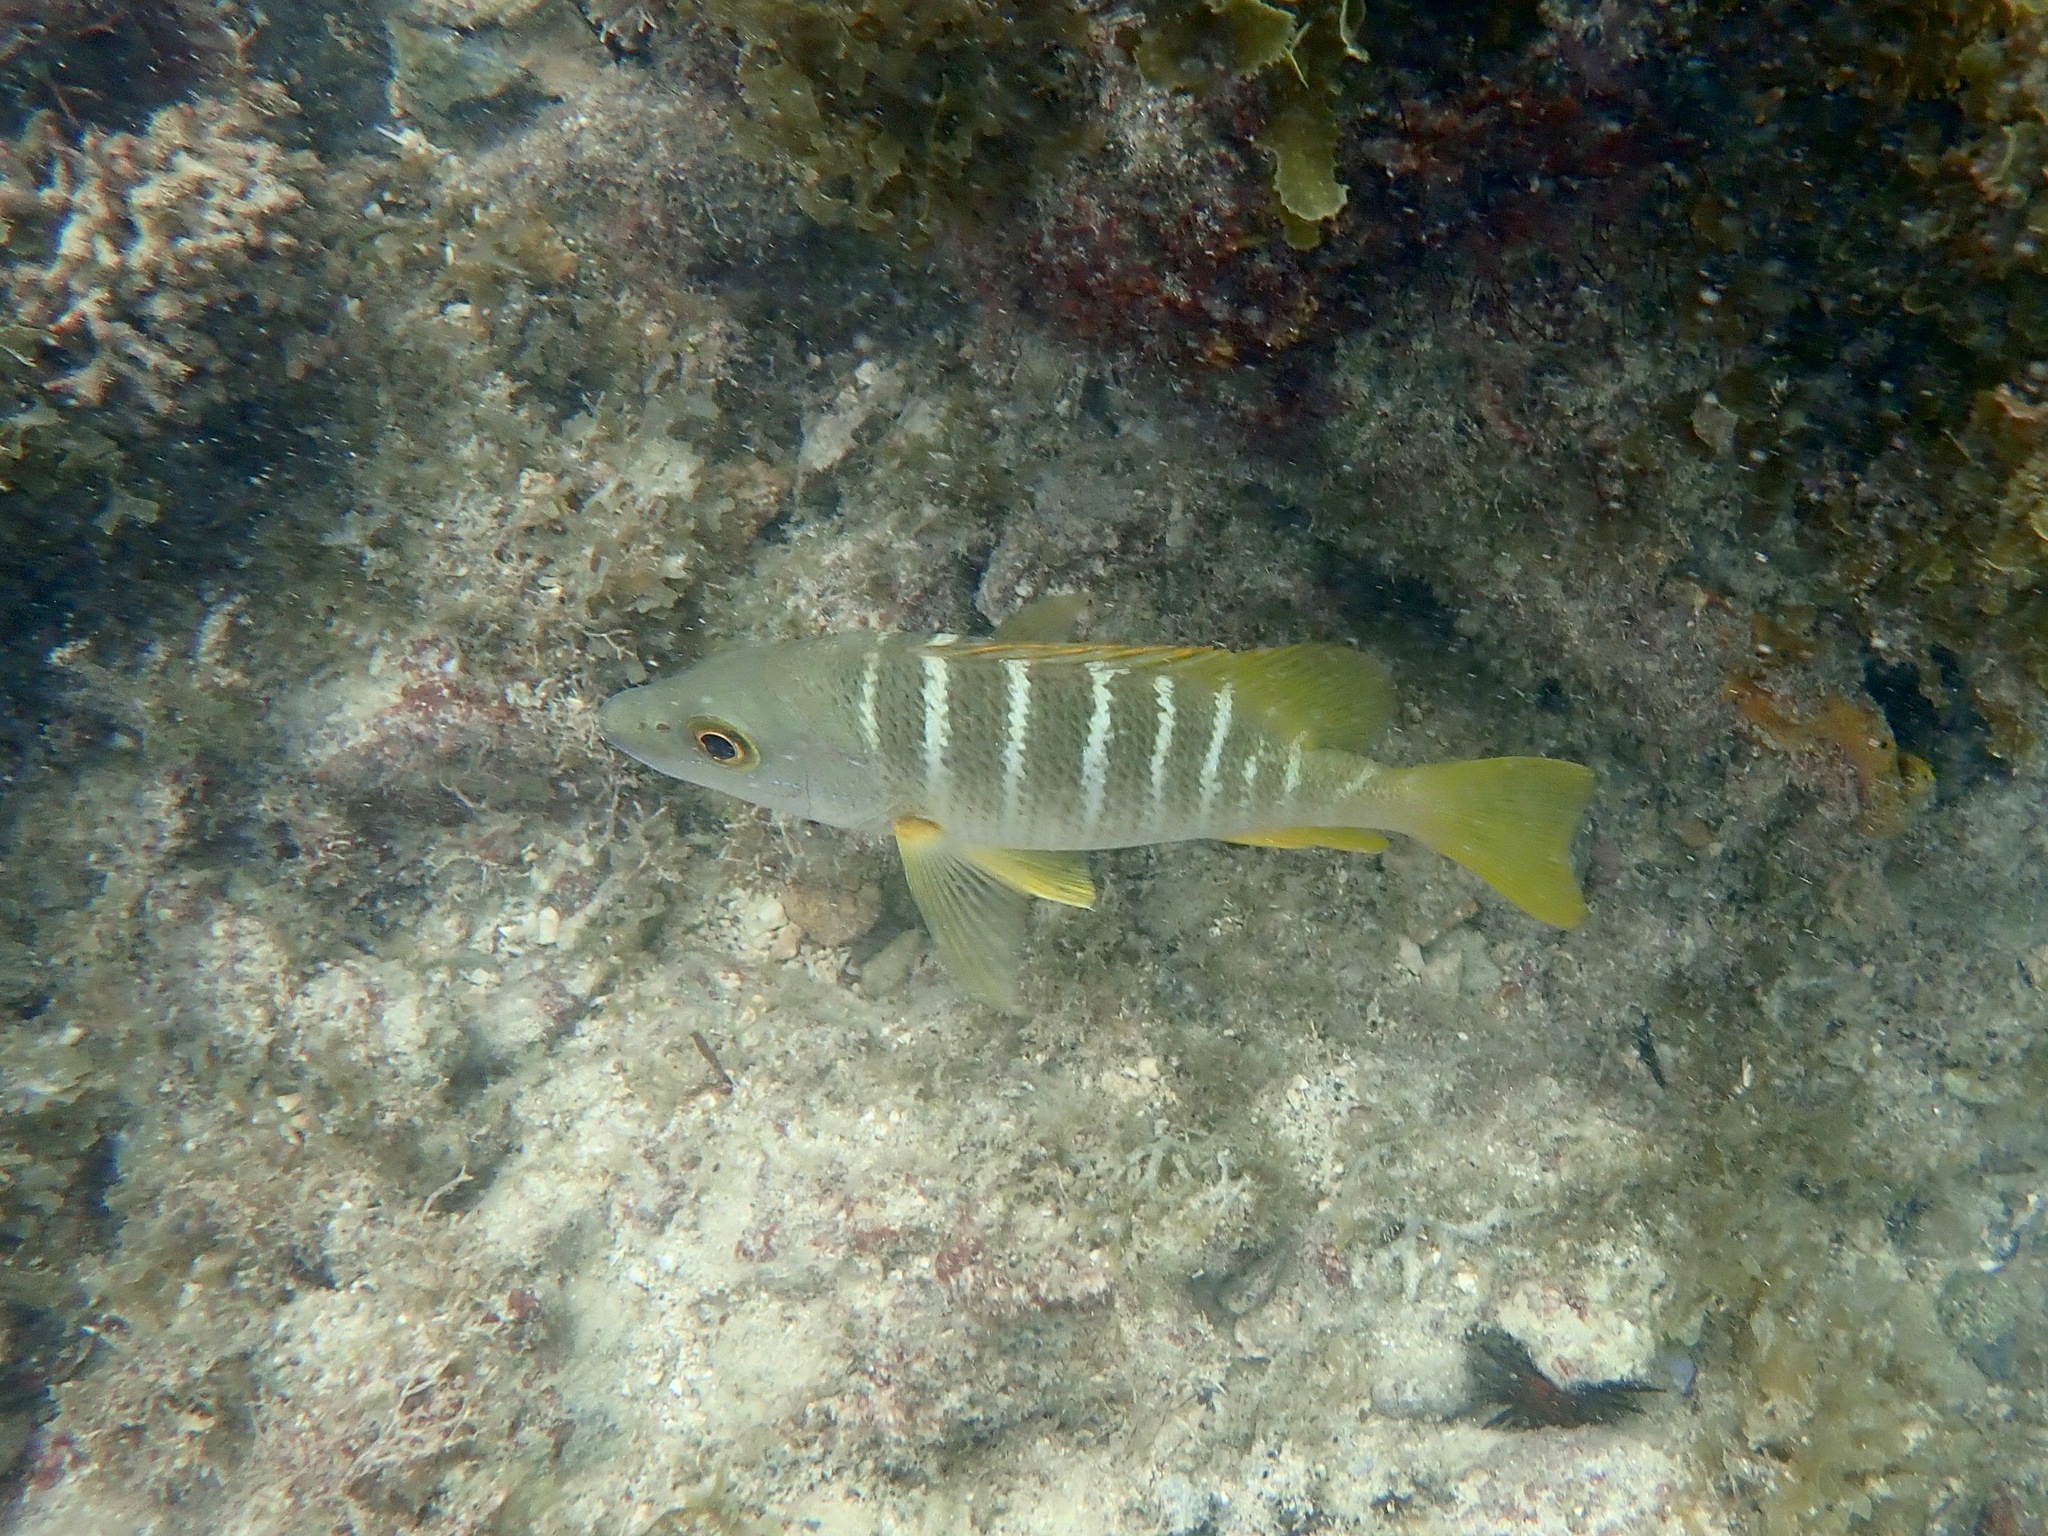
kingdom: Animalia
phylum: Chordata
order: Perciformes
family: Lutjanidae
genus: Lutjanus
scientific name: Lutjanus apodus
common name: Schoolmaster
